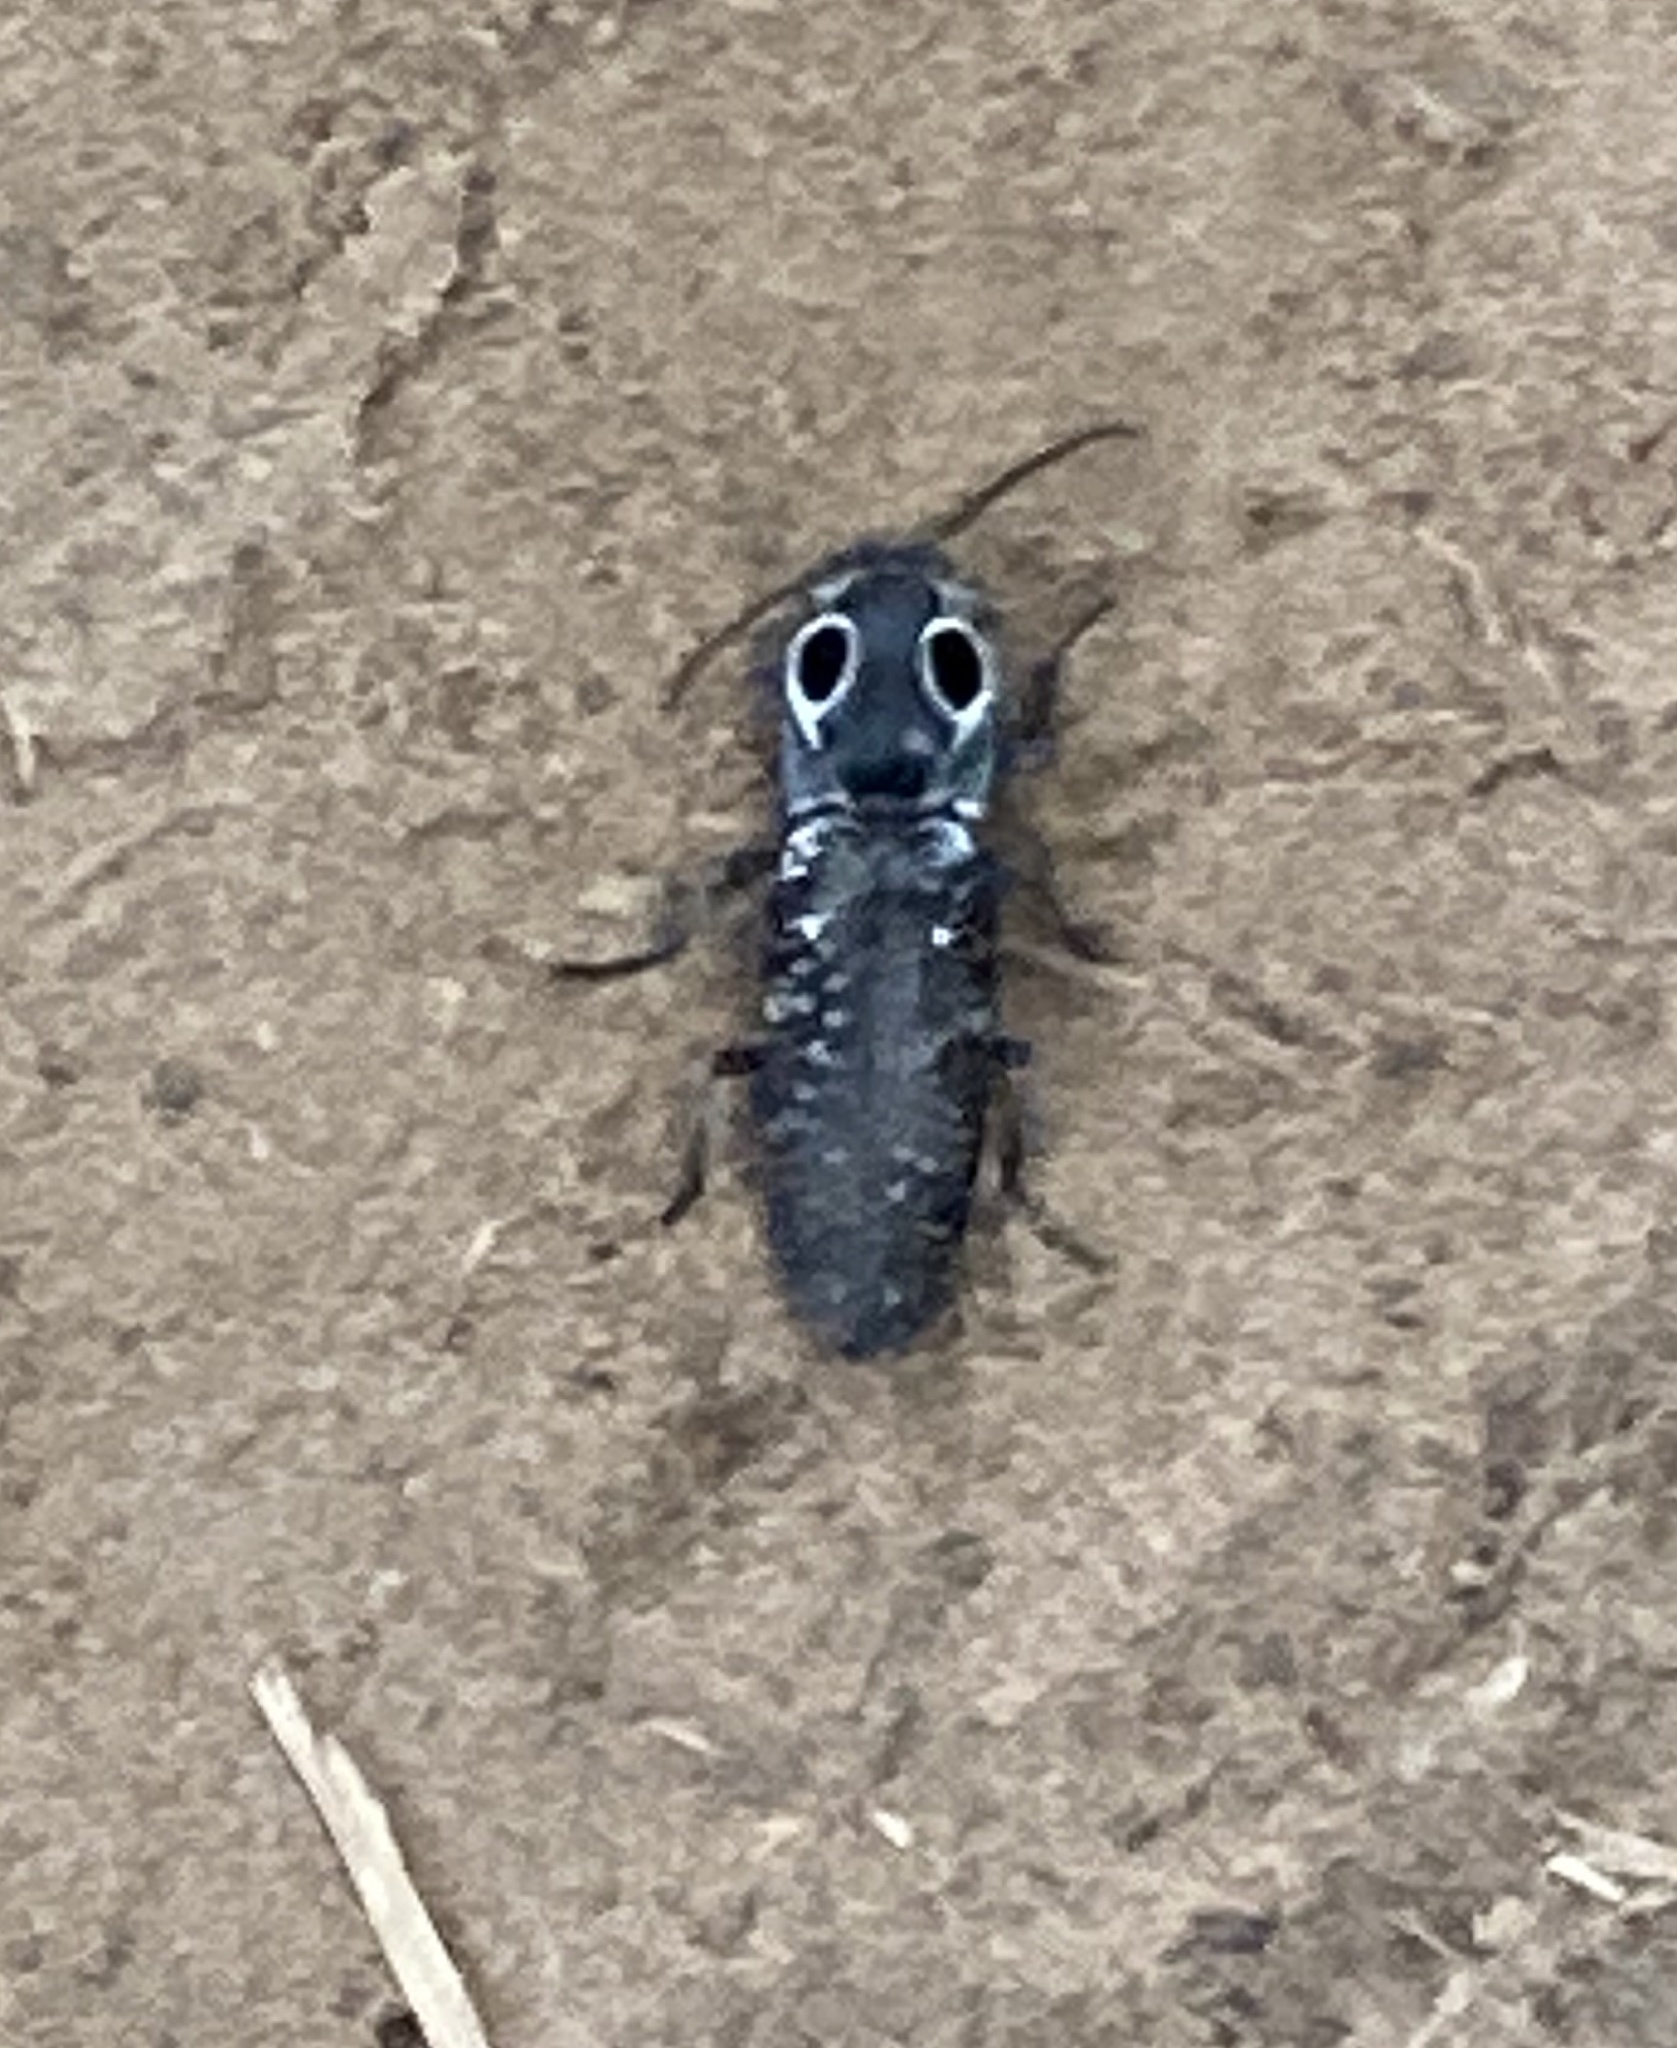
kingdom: Animalia
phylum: Arthropoda
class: Insecta
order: Coleoptera
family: Elateridae
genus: Alaus
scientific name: Alaus oculatus
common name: Eastern eyed click beetle
